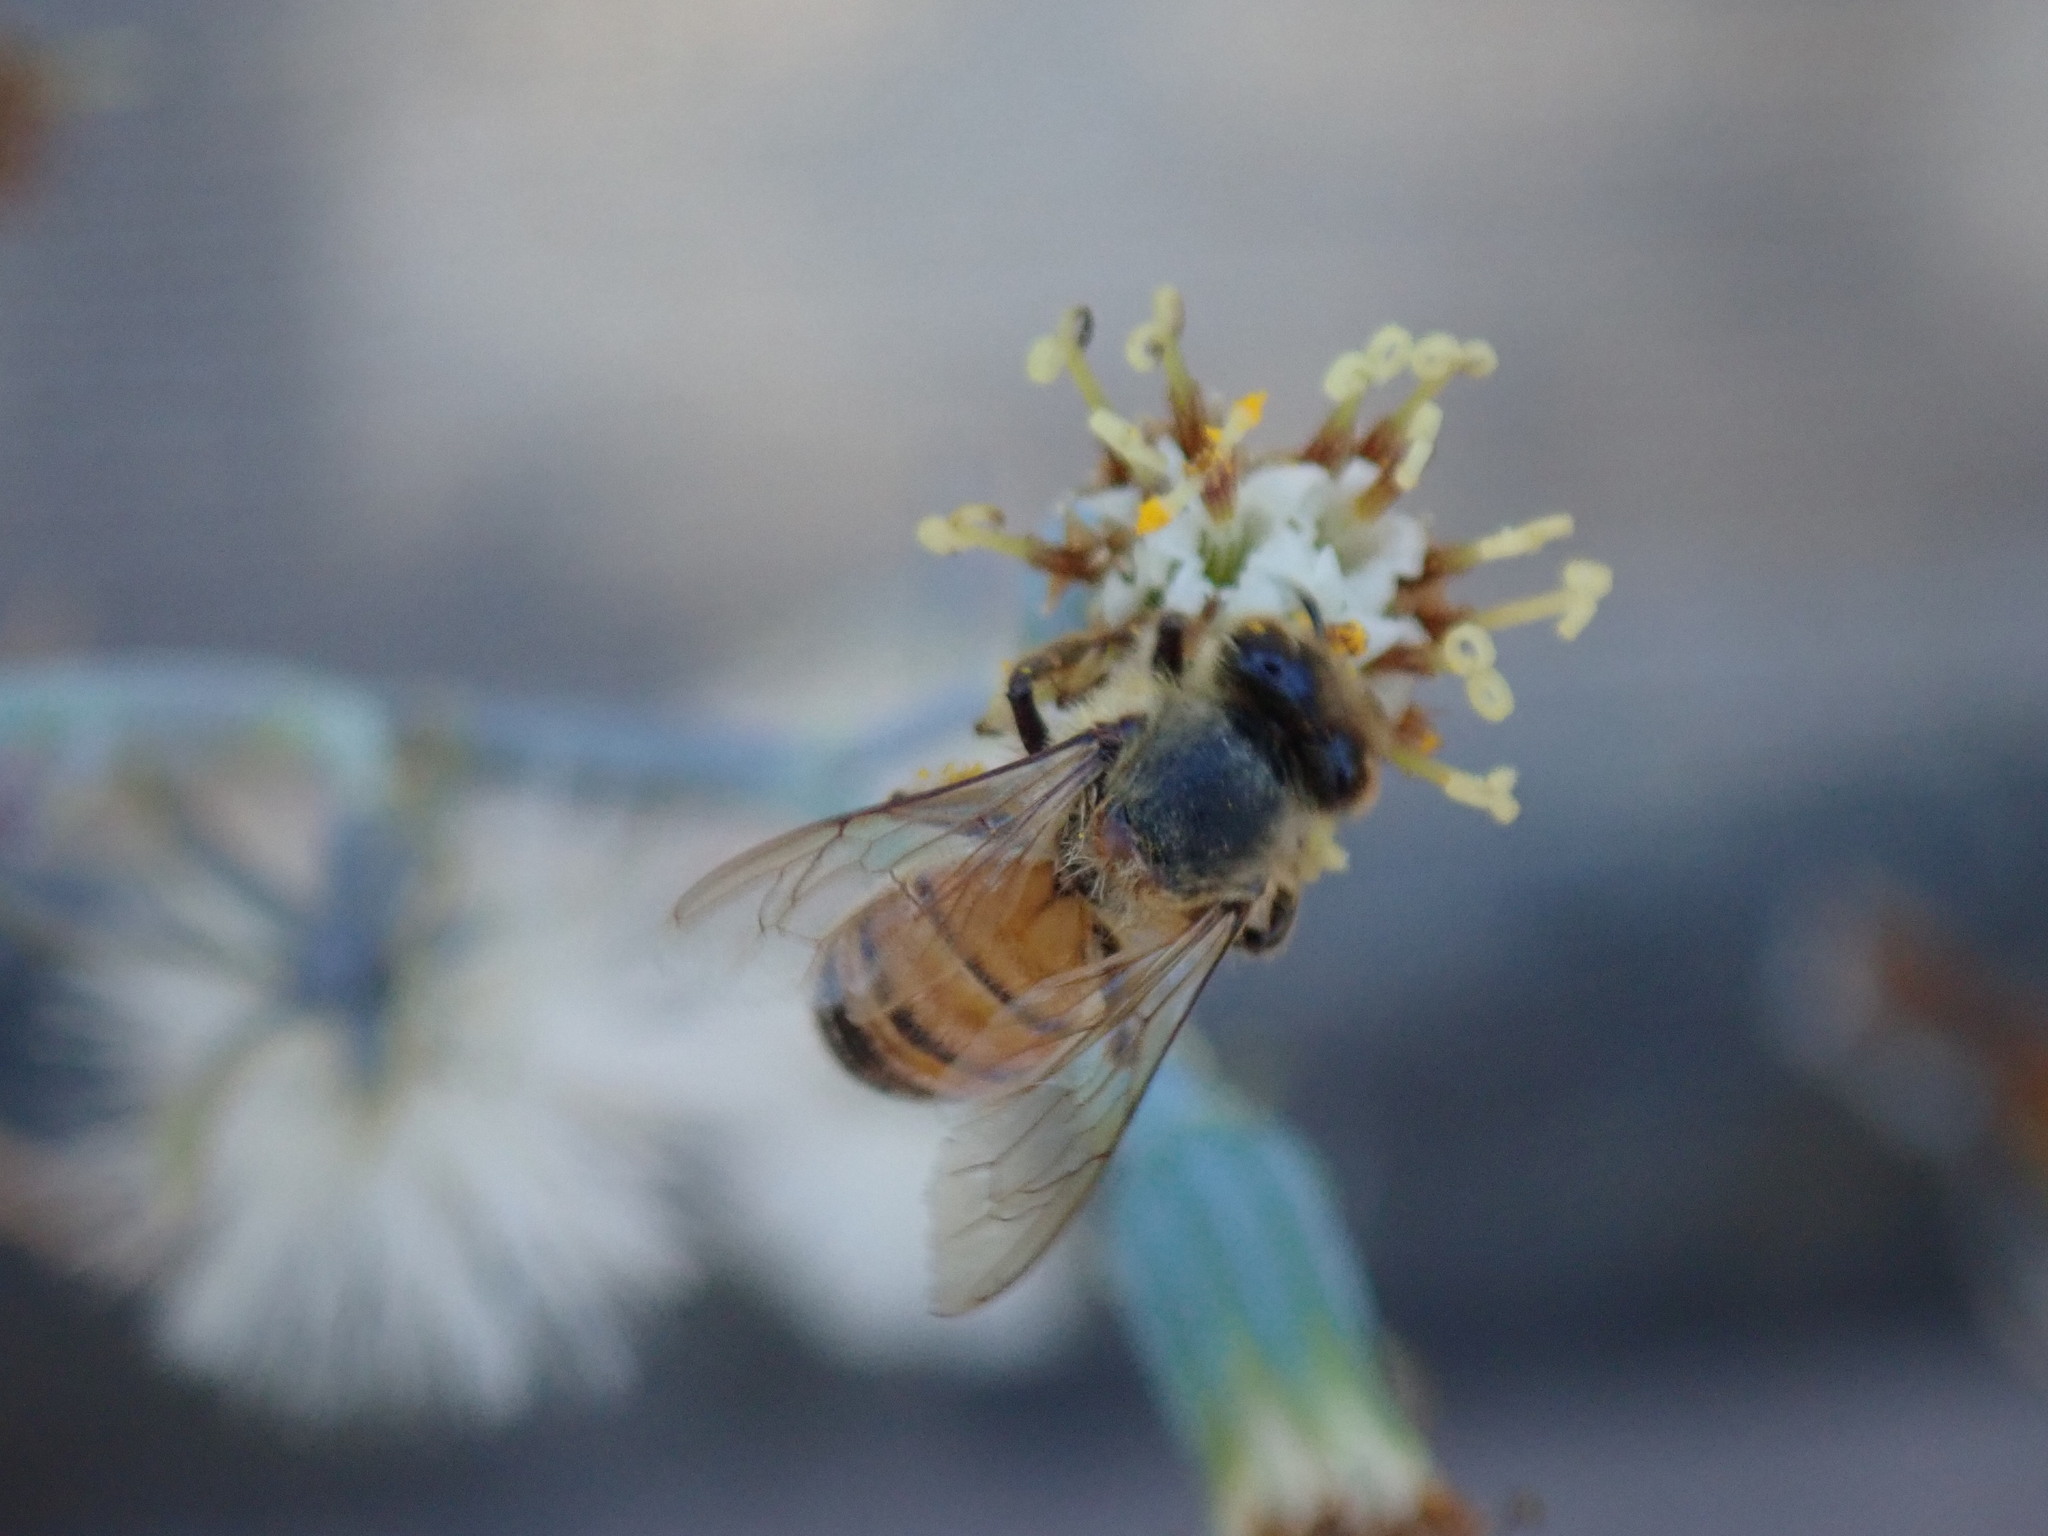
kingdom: Animalia
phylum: Arthropoda
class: Insecta
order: Hymenoptera
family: Apidae
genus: Apis
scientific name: Apis mellifera
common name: Honey bee
